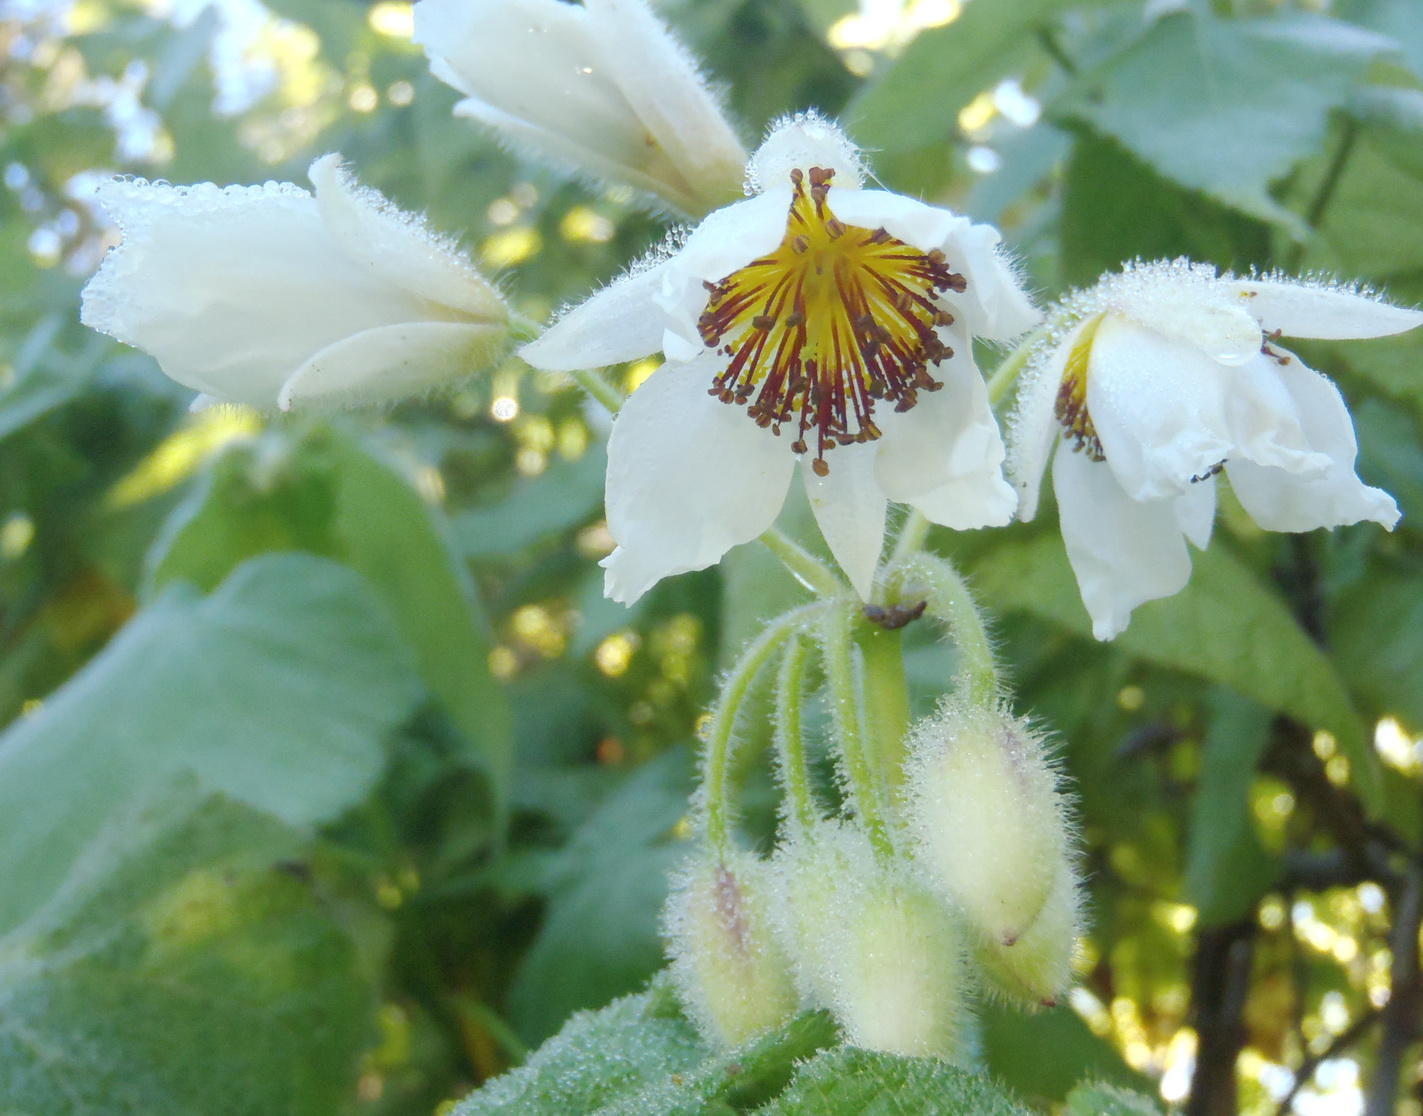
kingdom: Plantae
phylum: Tracheophyta
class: Magnoliopsida
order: Malvales
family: Malvaceae
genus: Sparrmannia
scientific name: Sparrmannia africana
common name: African-hemp
